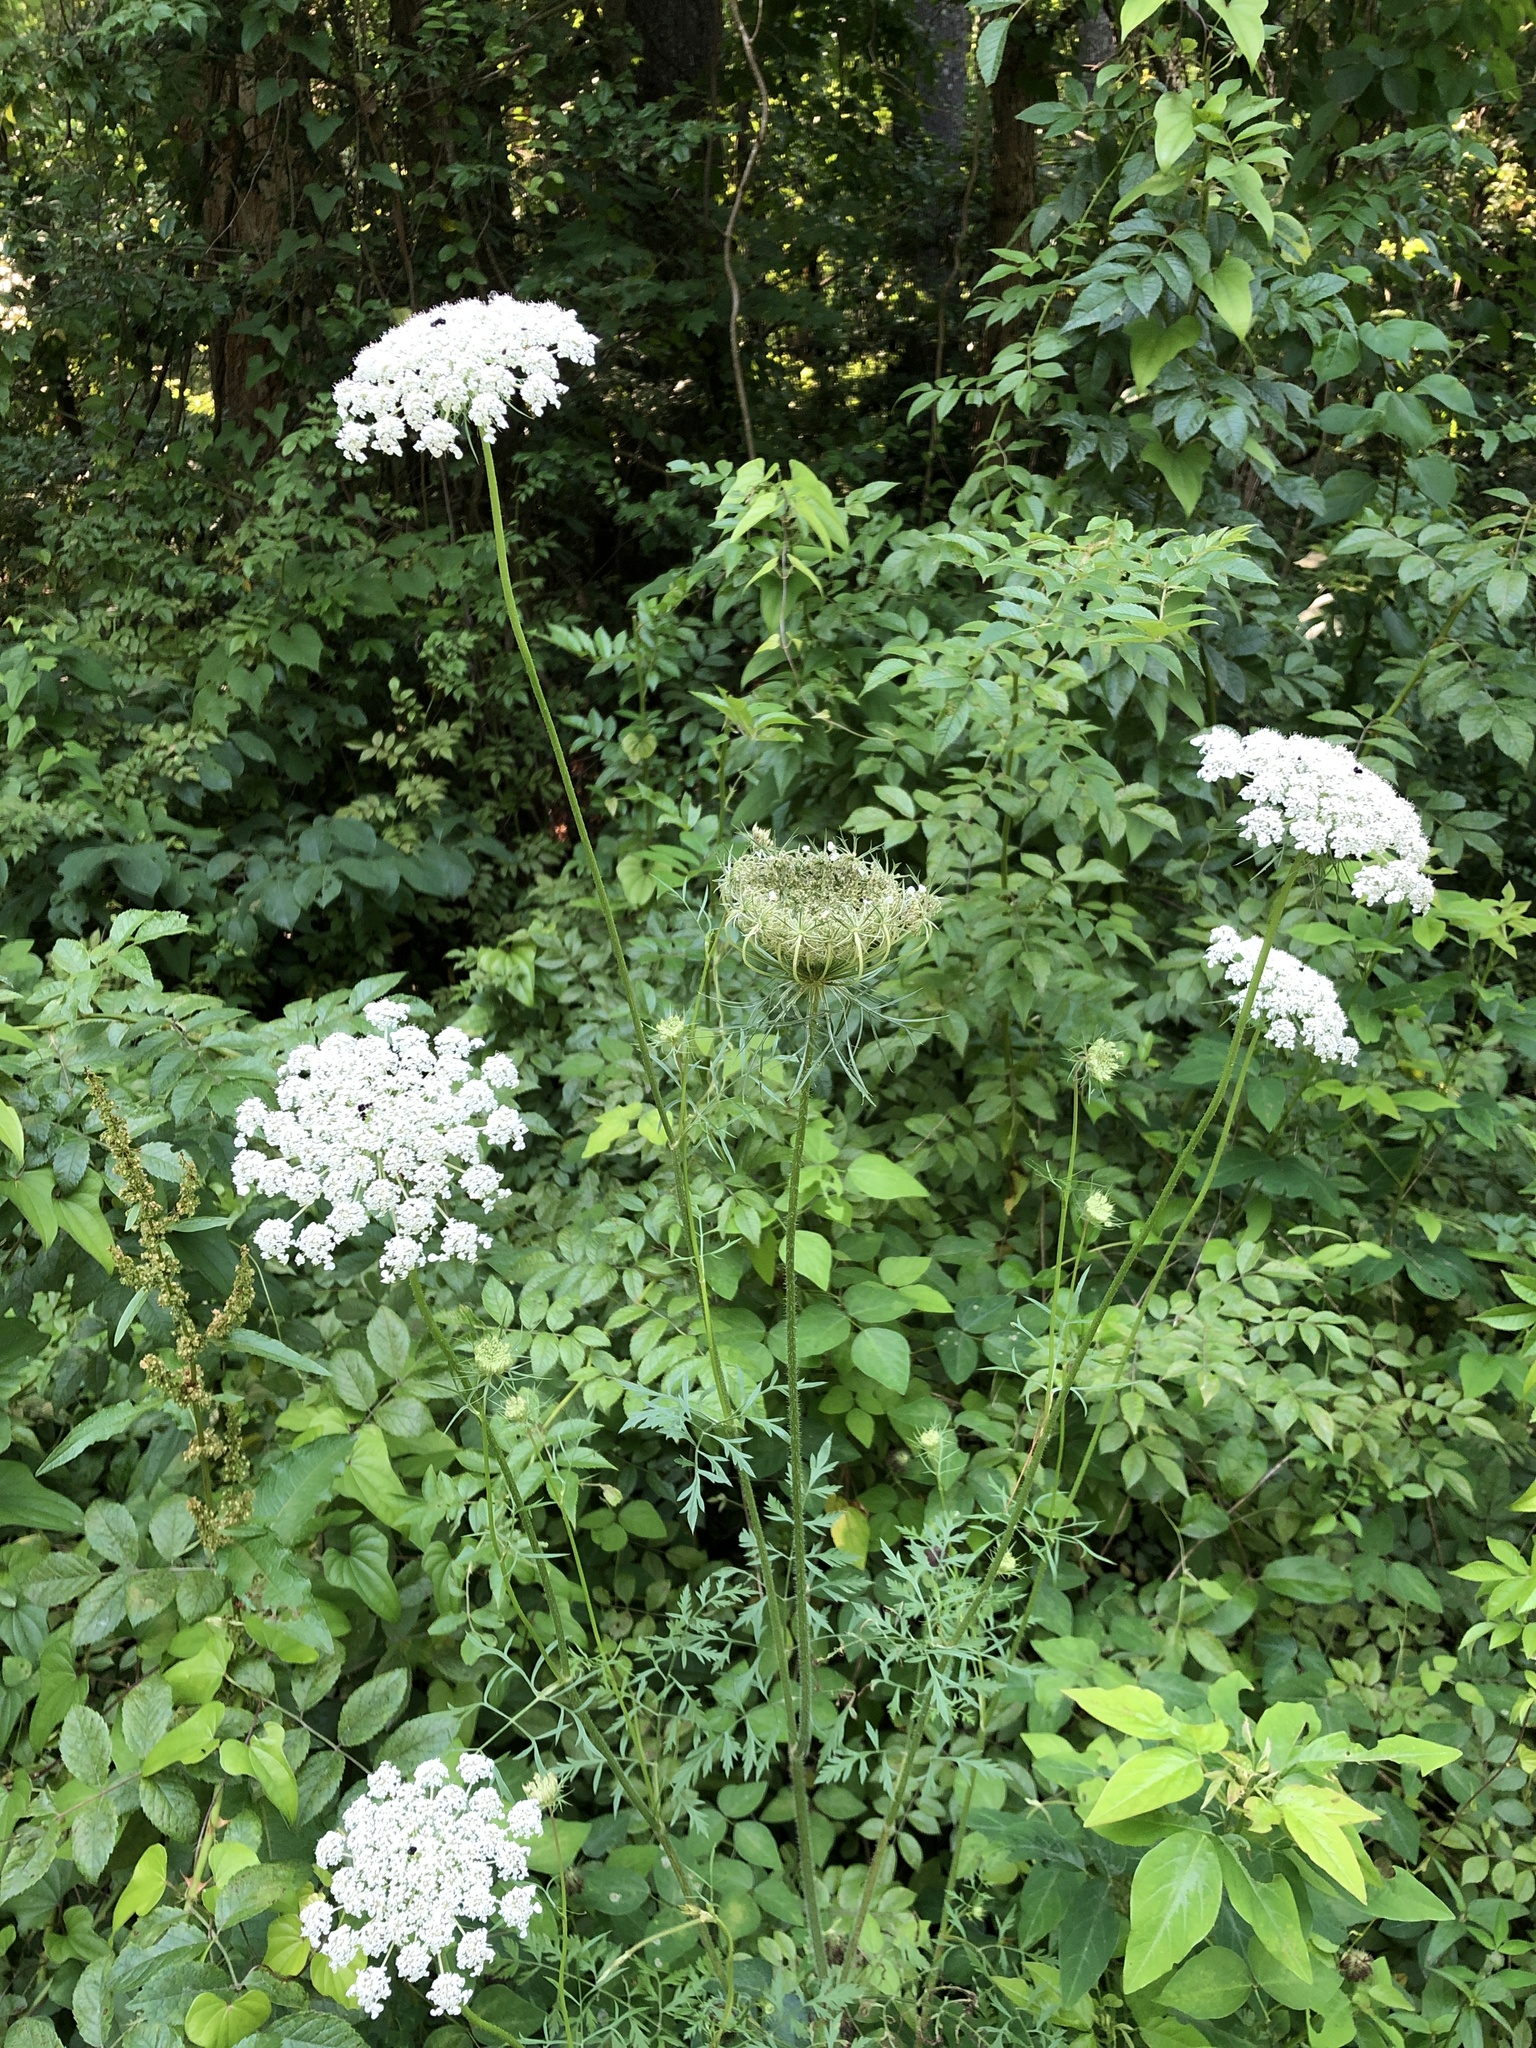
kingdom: Plantae
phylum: Tracheophyta
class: Magnoliopsida
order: Apiales
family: Apiaceae
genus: Daucus
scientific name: Daucus carota
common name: Wild carrot
